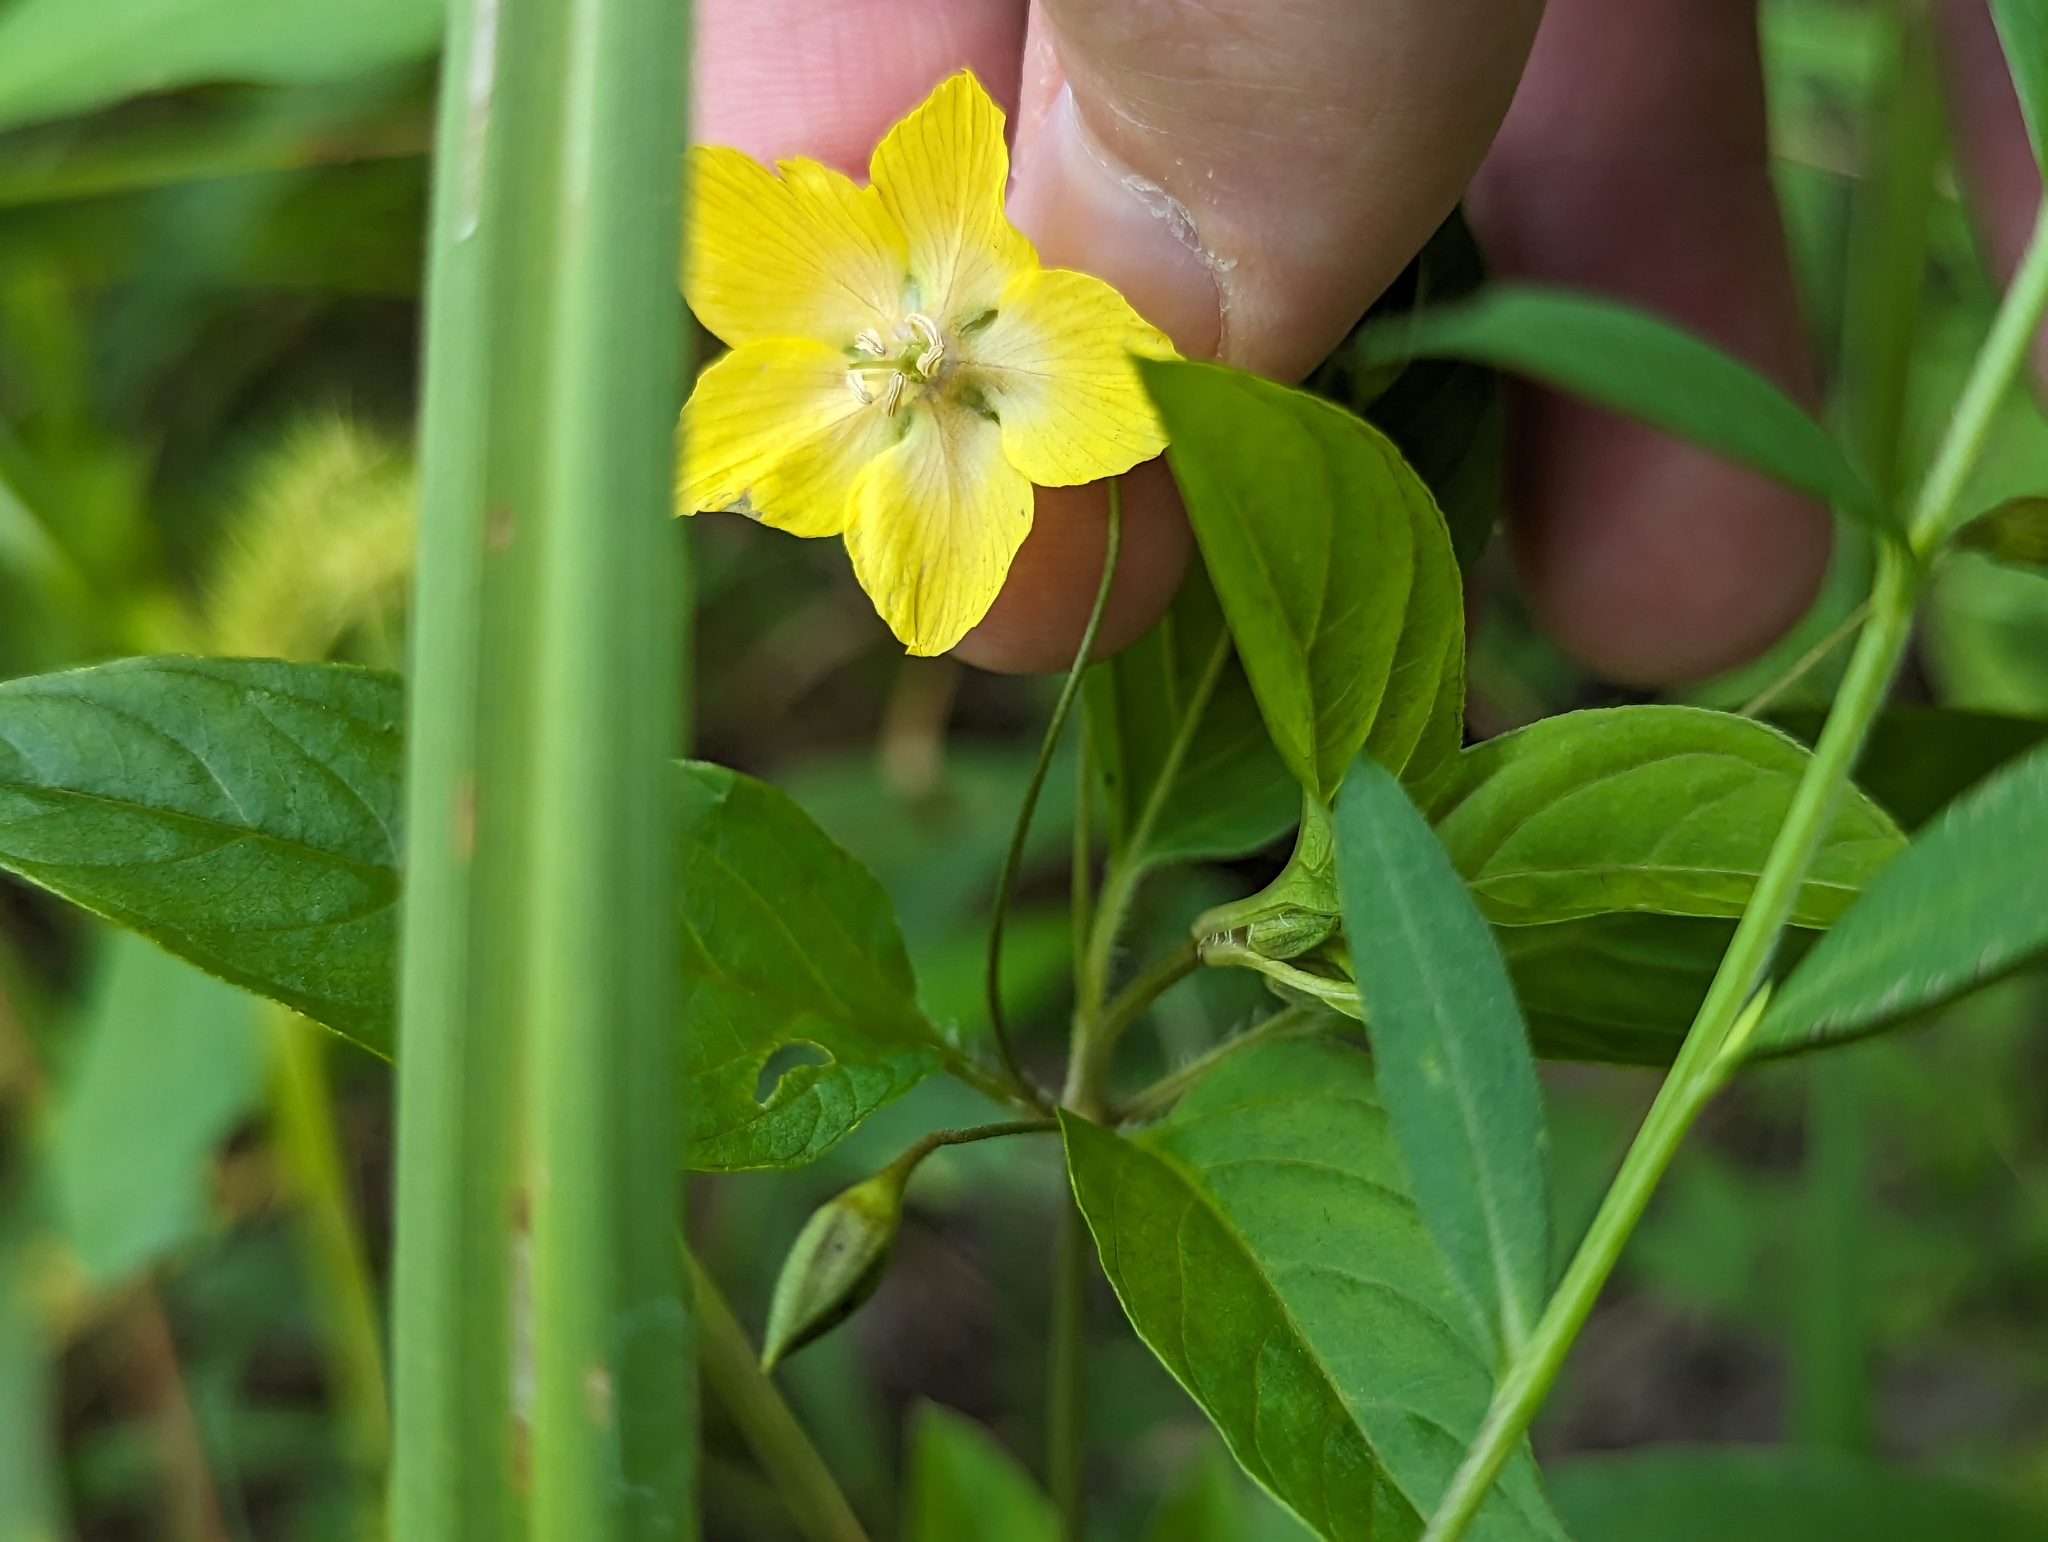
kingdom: Plantae
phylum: Tracheophyta
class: Magnoliopsida
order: Ericales
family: Primulaceae
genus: Lysimachia
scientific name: Lysimachia ciliata
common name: Fringed loosestrife
